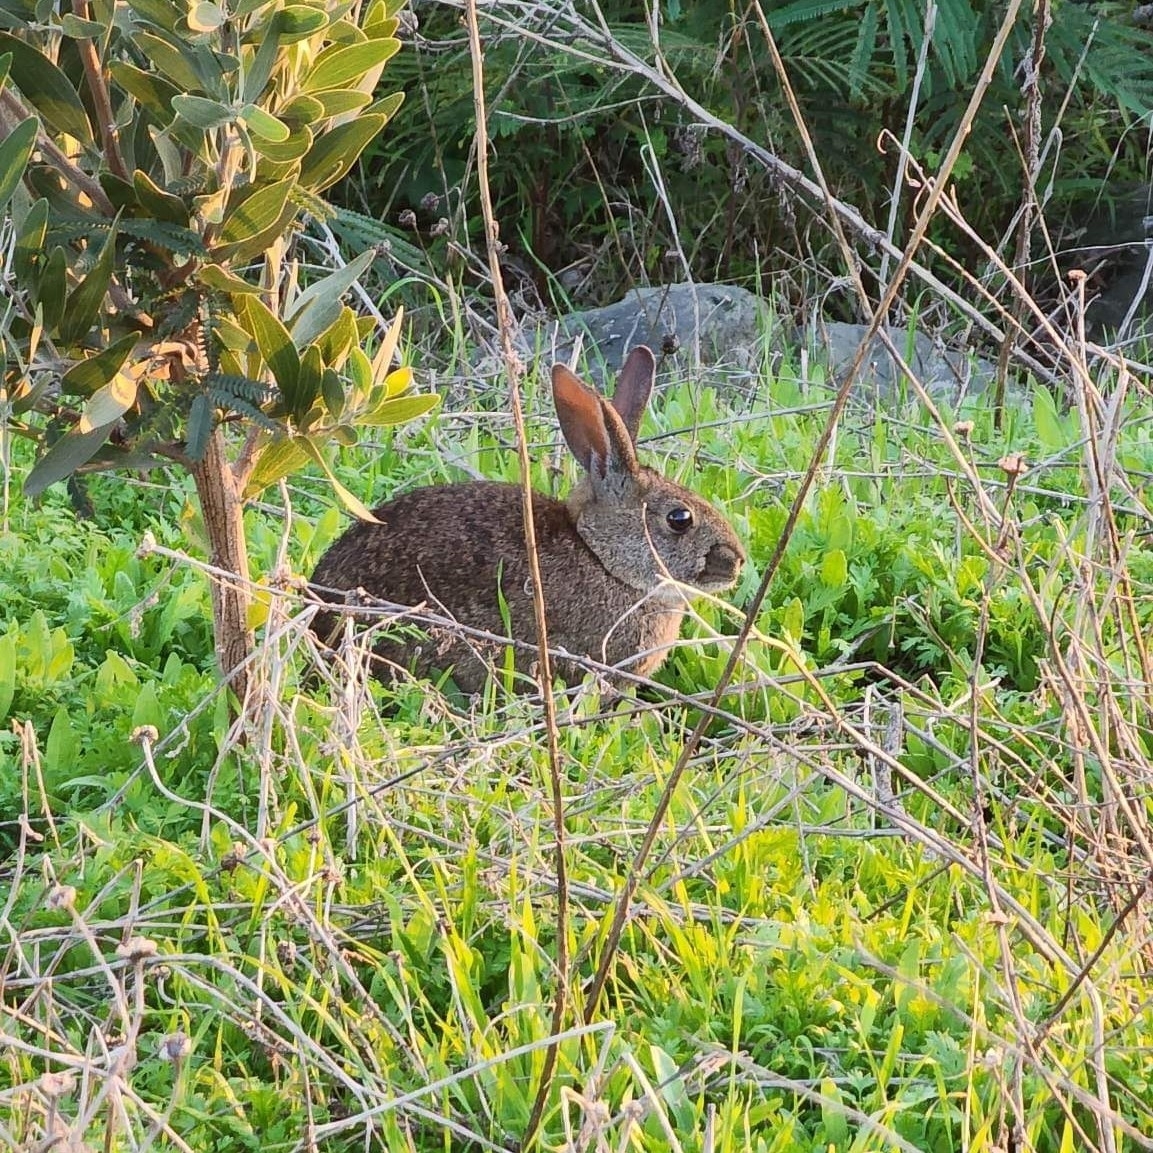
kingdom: Animalia
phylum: Chordata
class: Mammalia
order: Lagomorpha
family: Leporidae
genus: Sylvilagus
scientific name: Sylvilagus bachmani
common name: Brush rabbit
